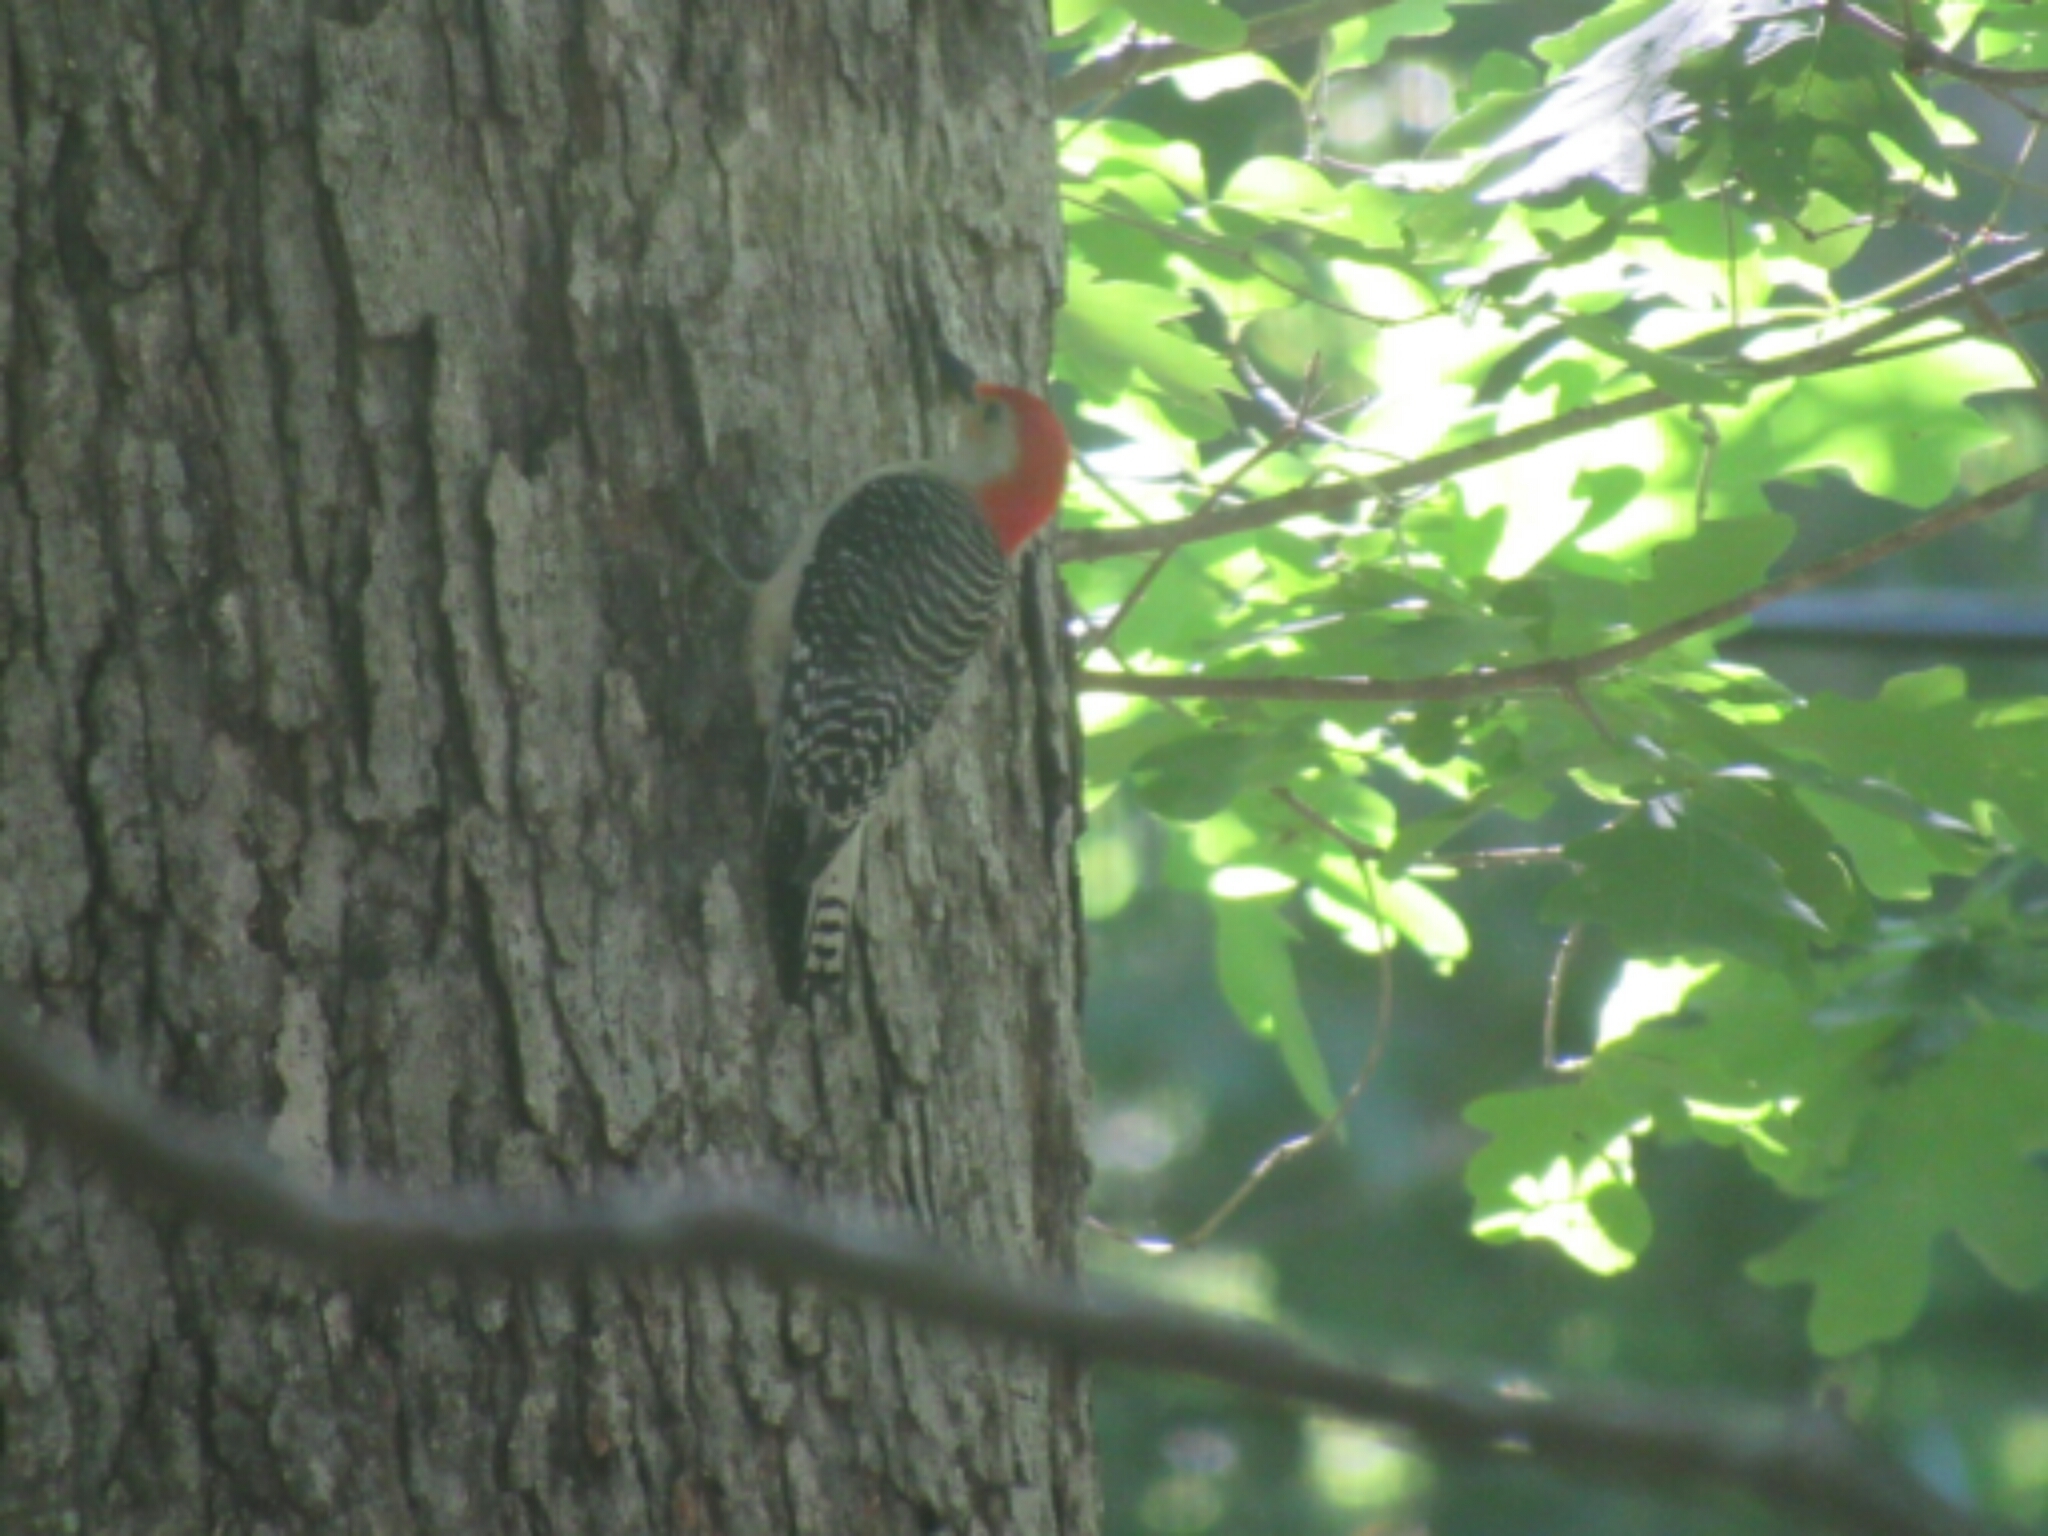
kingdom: Animalia
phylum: Chordata
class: Aves
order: Piciformes
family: Picidae
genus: Melanerpes
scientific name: Melanerpes carolinus
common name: Red-bellied woodpecker
